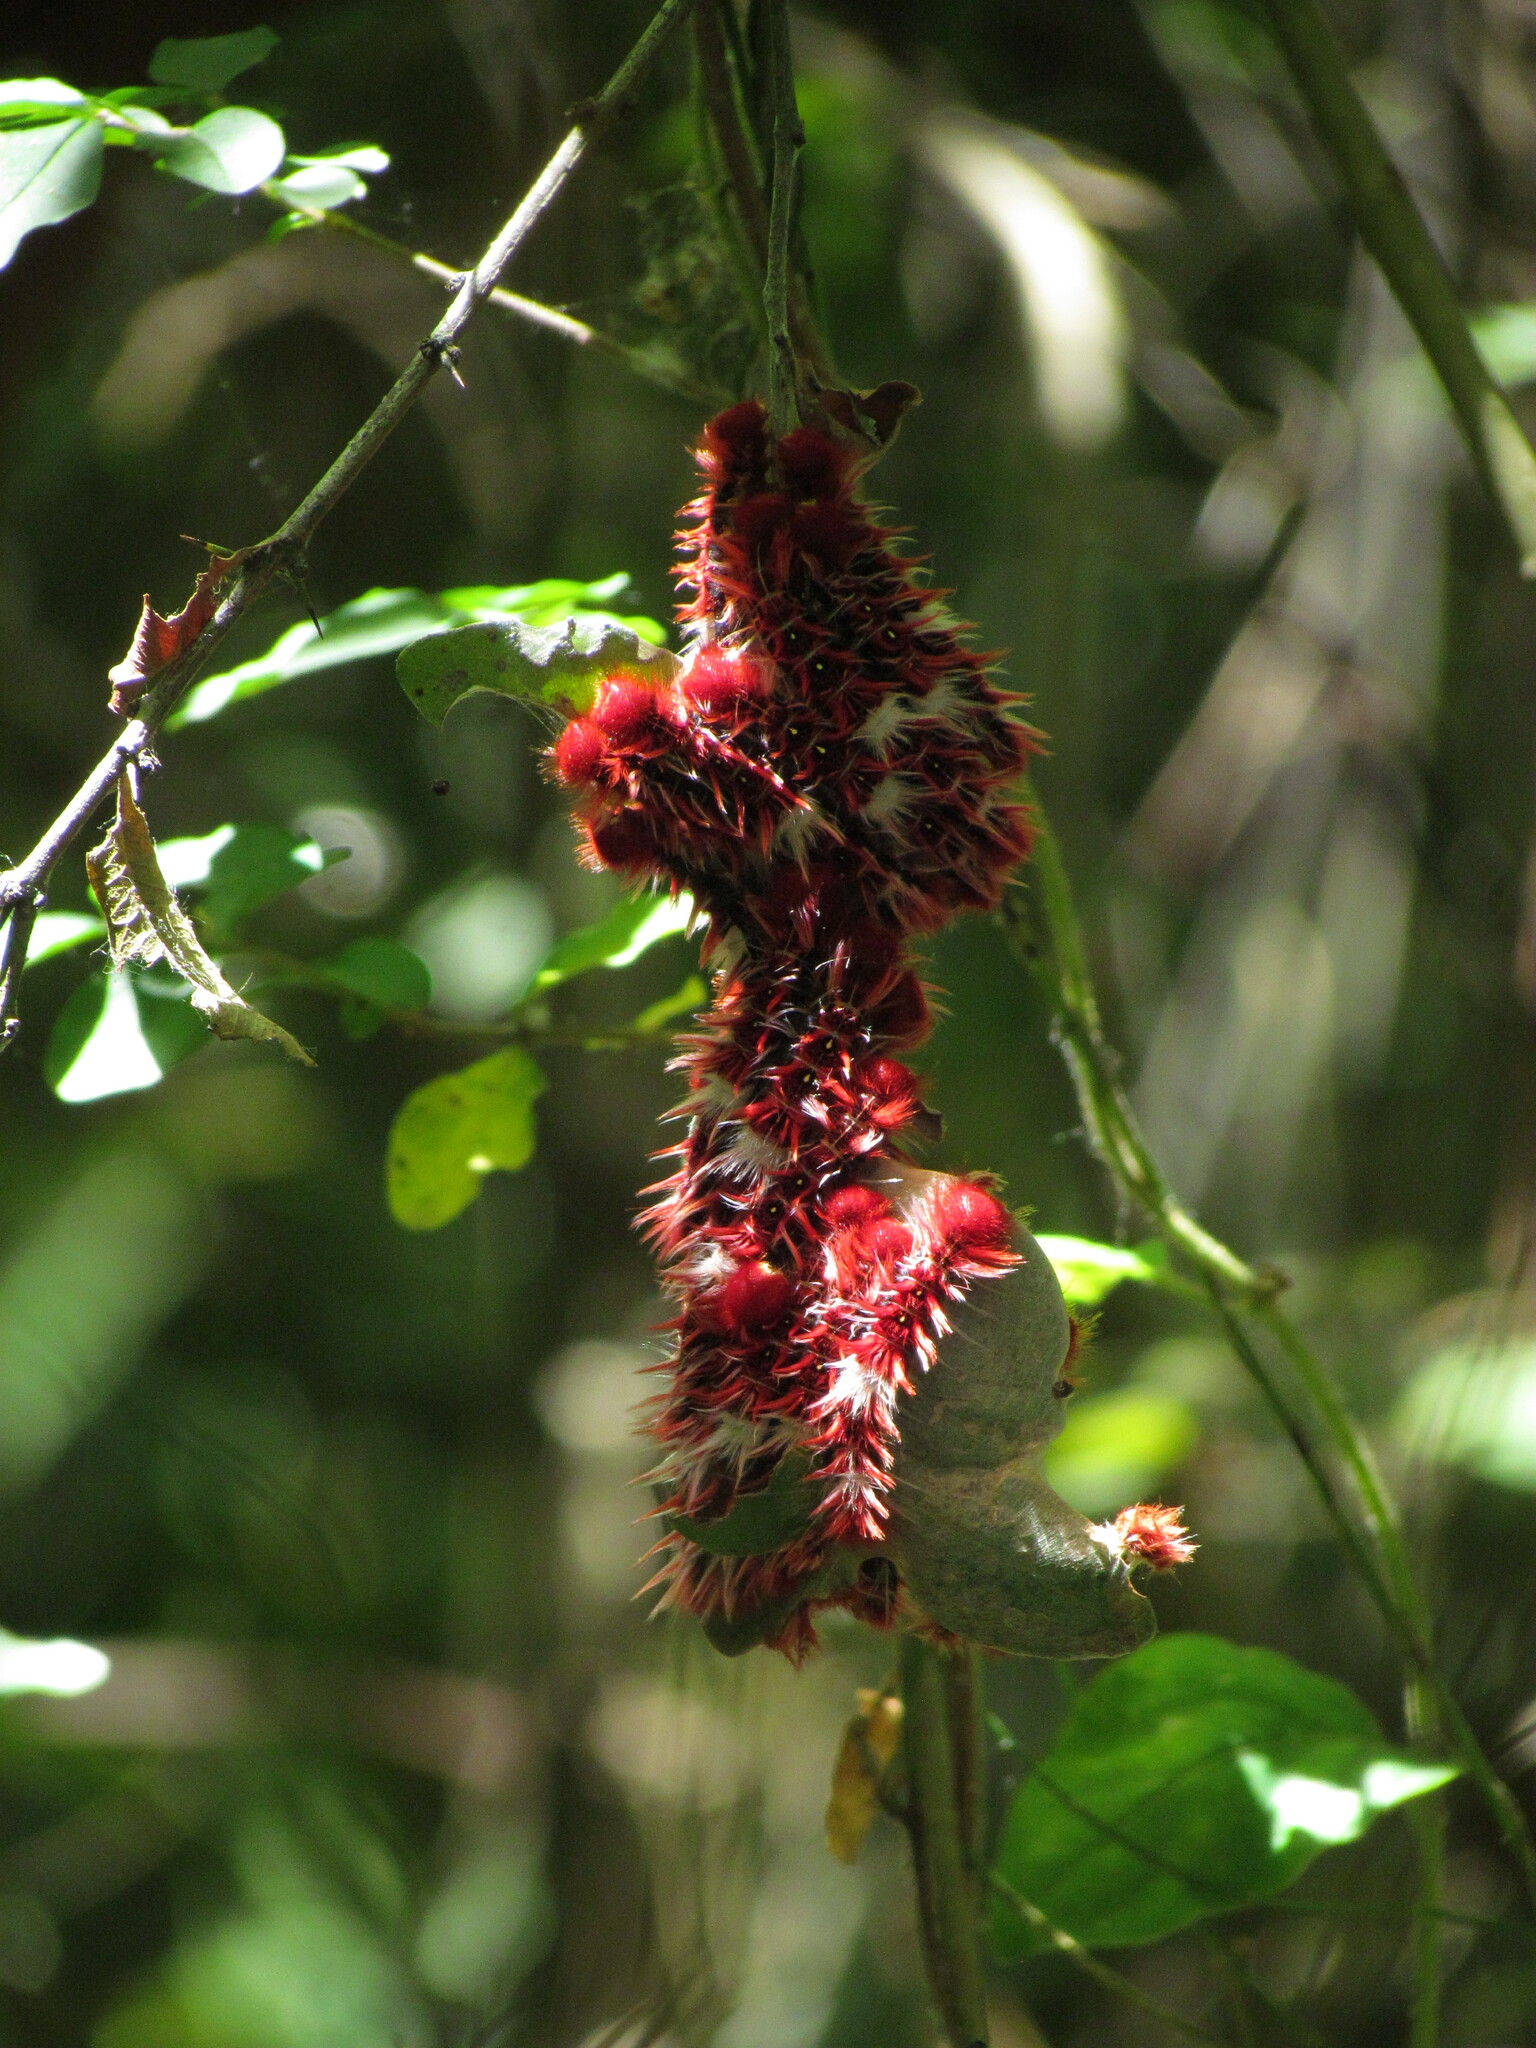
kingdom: Animalia
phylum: Arthropoda
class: Insecta
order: Lepidoptera
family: Nymphalidae
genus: Morpho
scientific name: Morpho epistrophus
